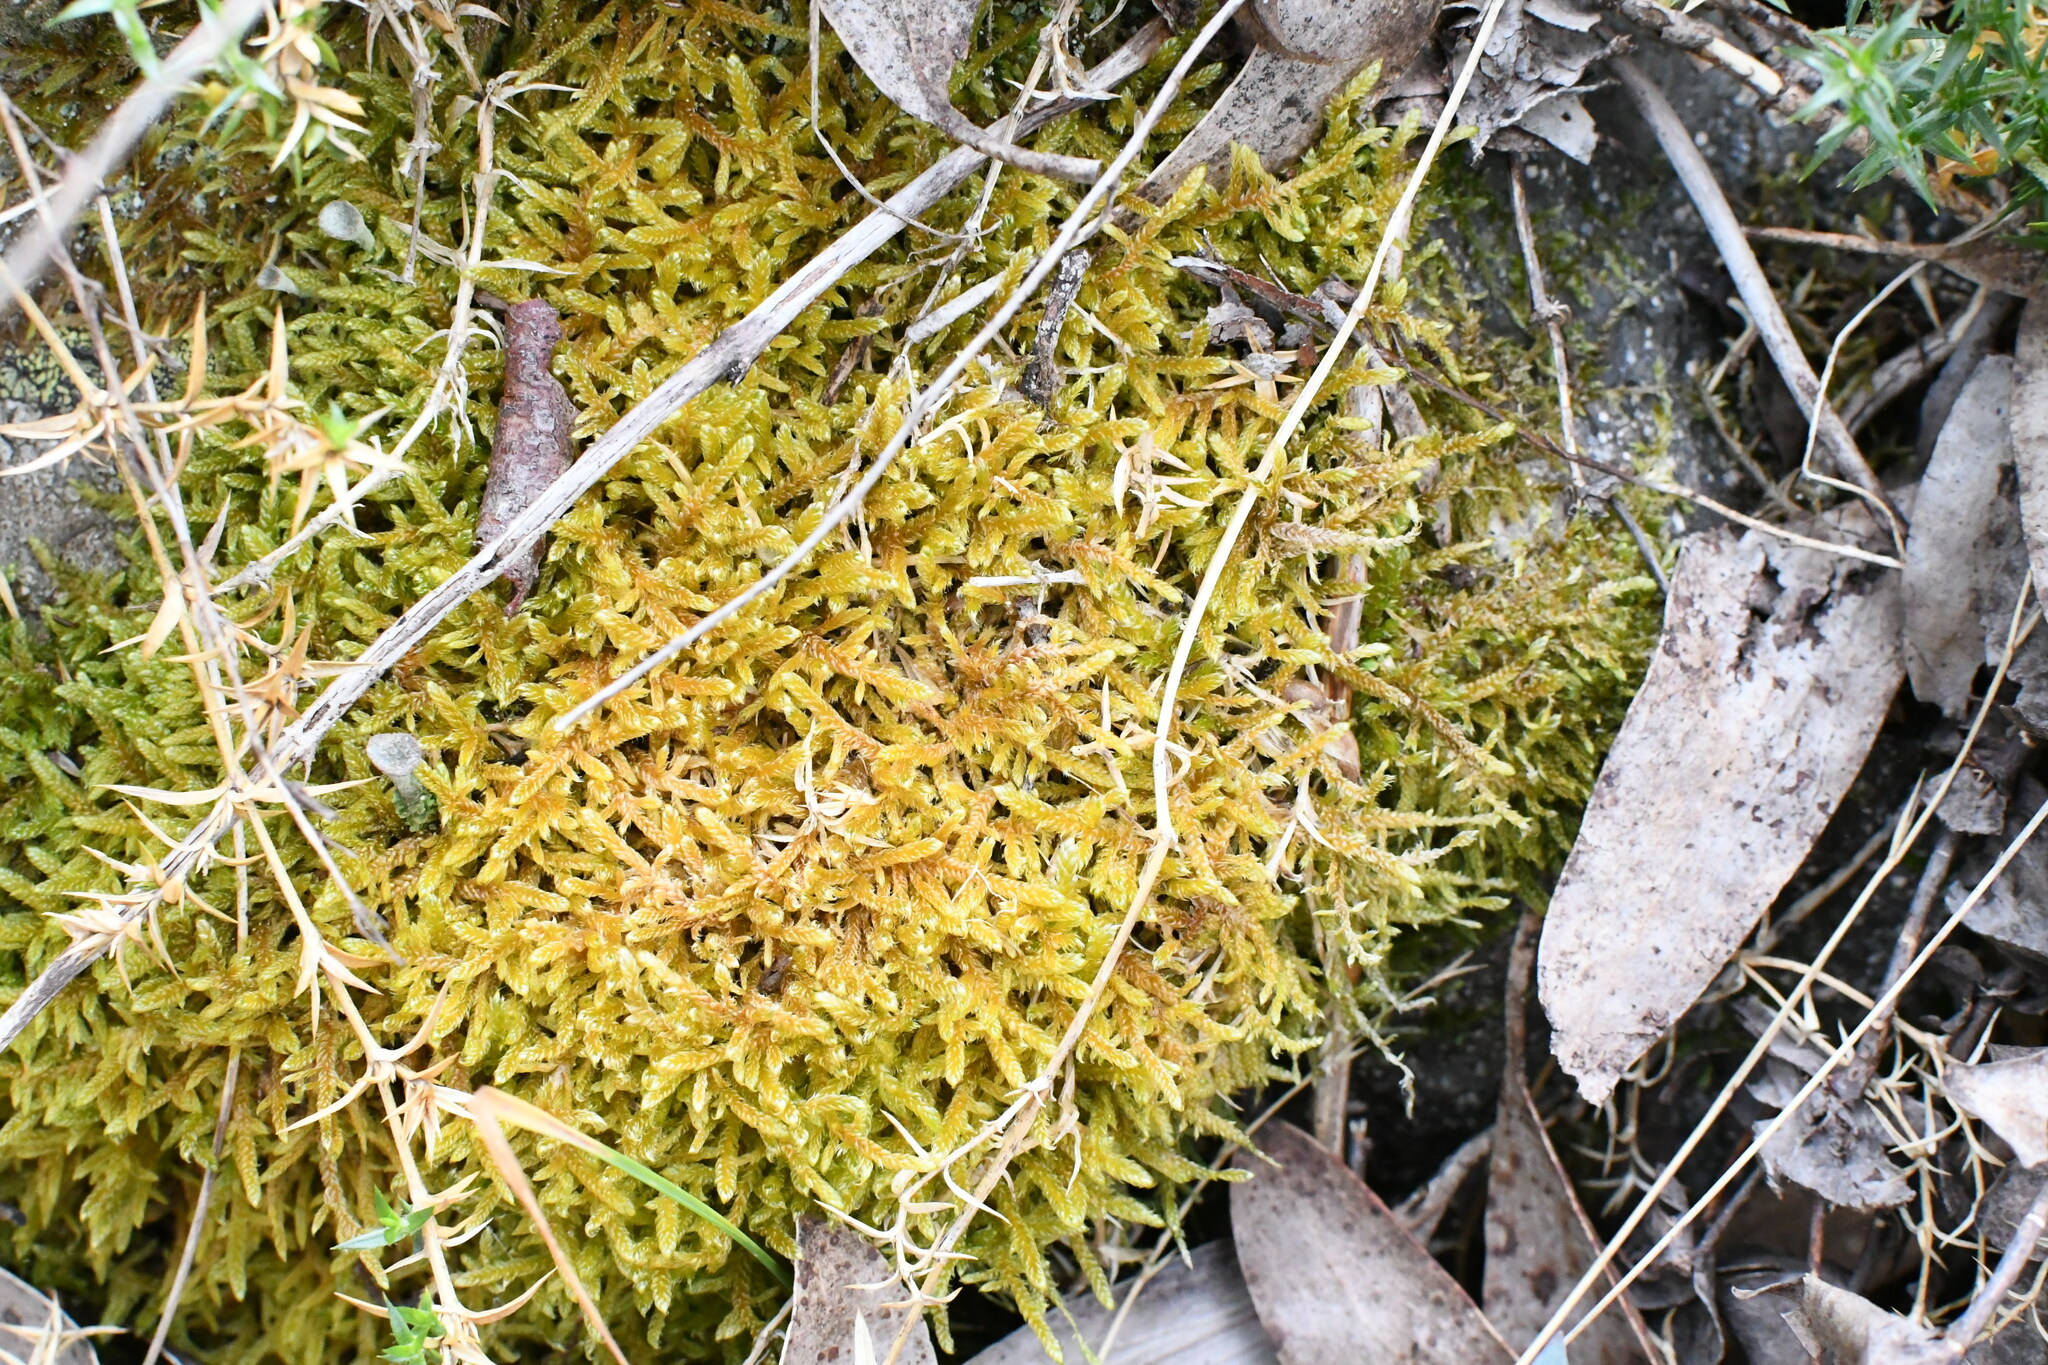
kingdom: Plantae
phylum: Bryophyta
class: Bryopsida
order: Hypnales
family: Hypnaceae
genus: Hypnum
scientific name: Hypnum cupressiforme
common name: Cypress-leaved plait-moss
